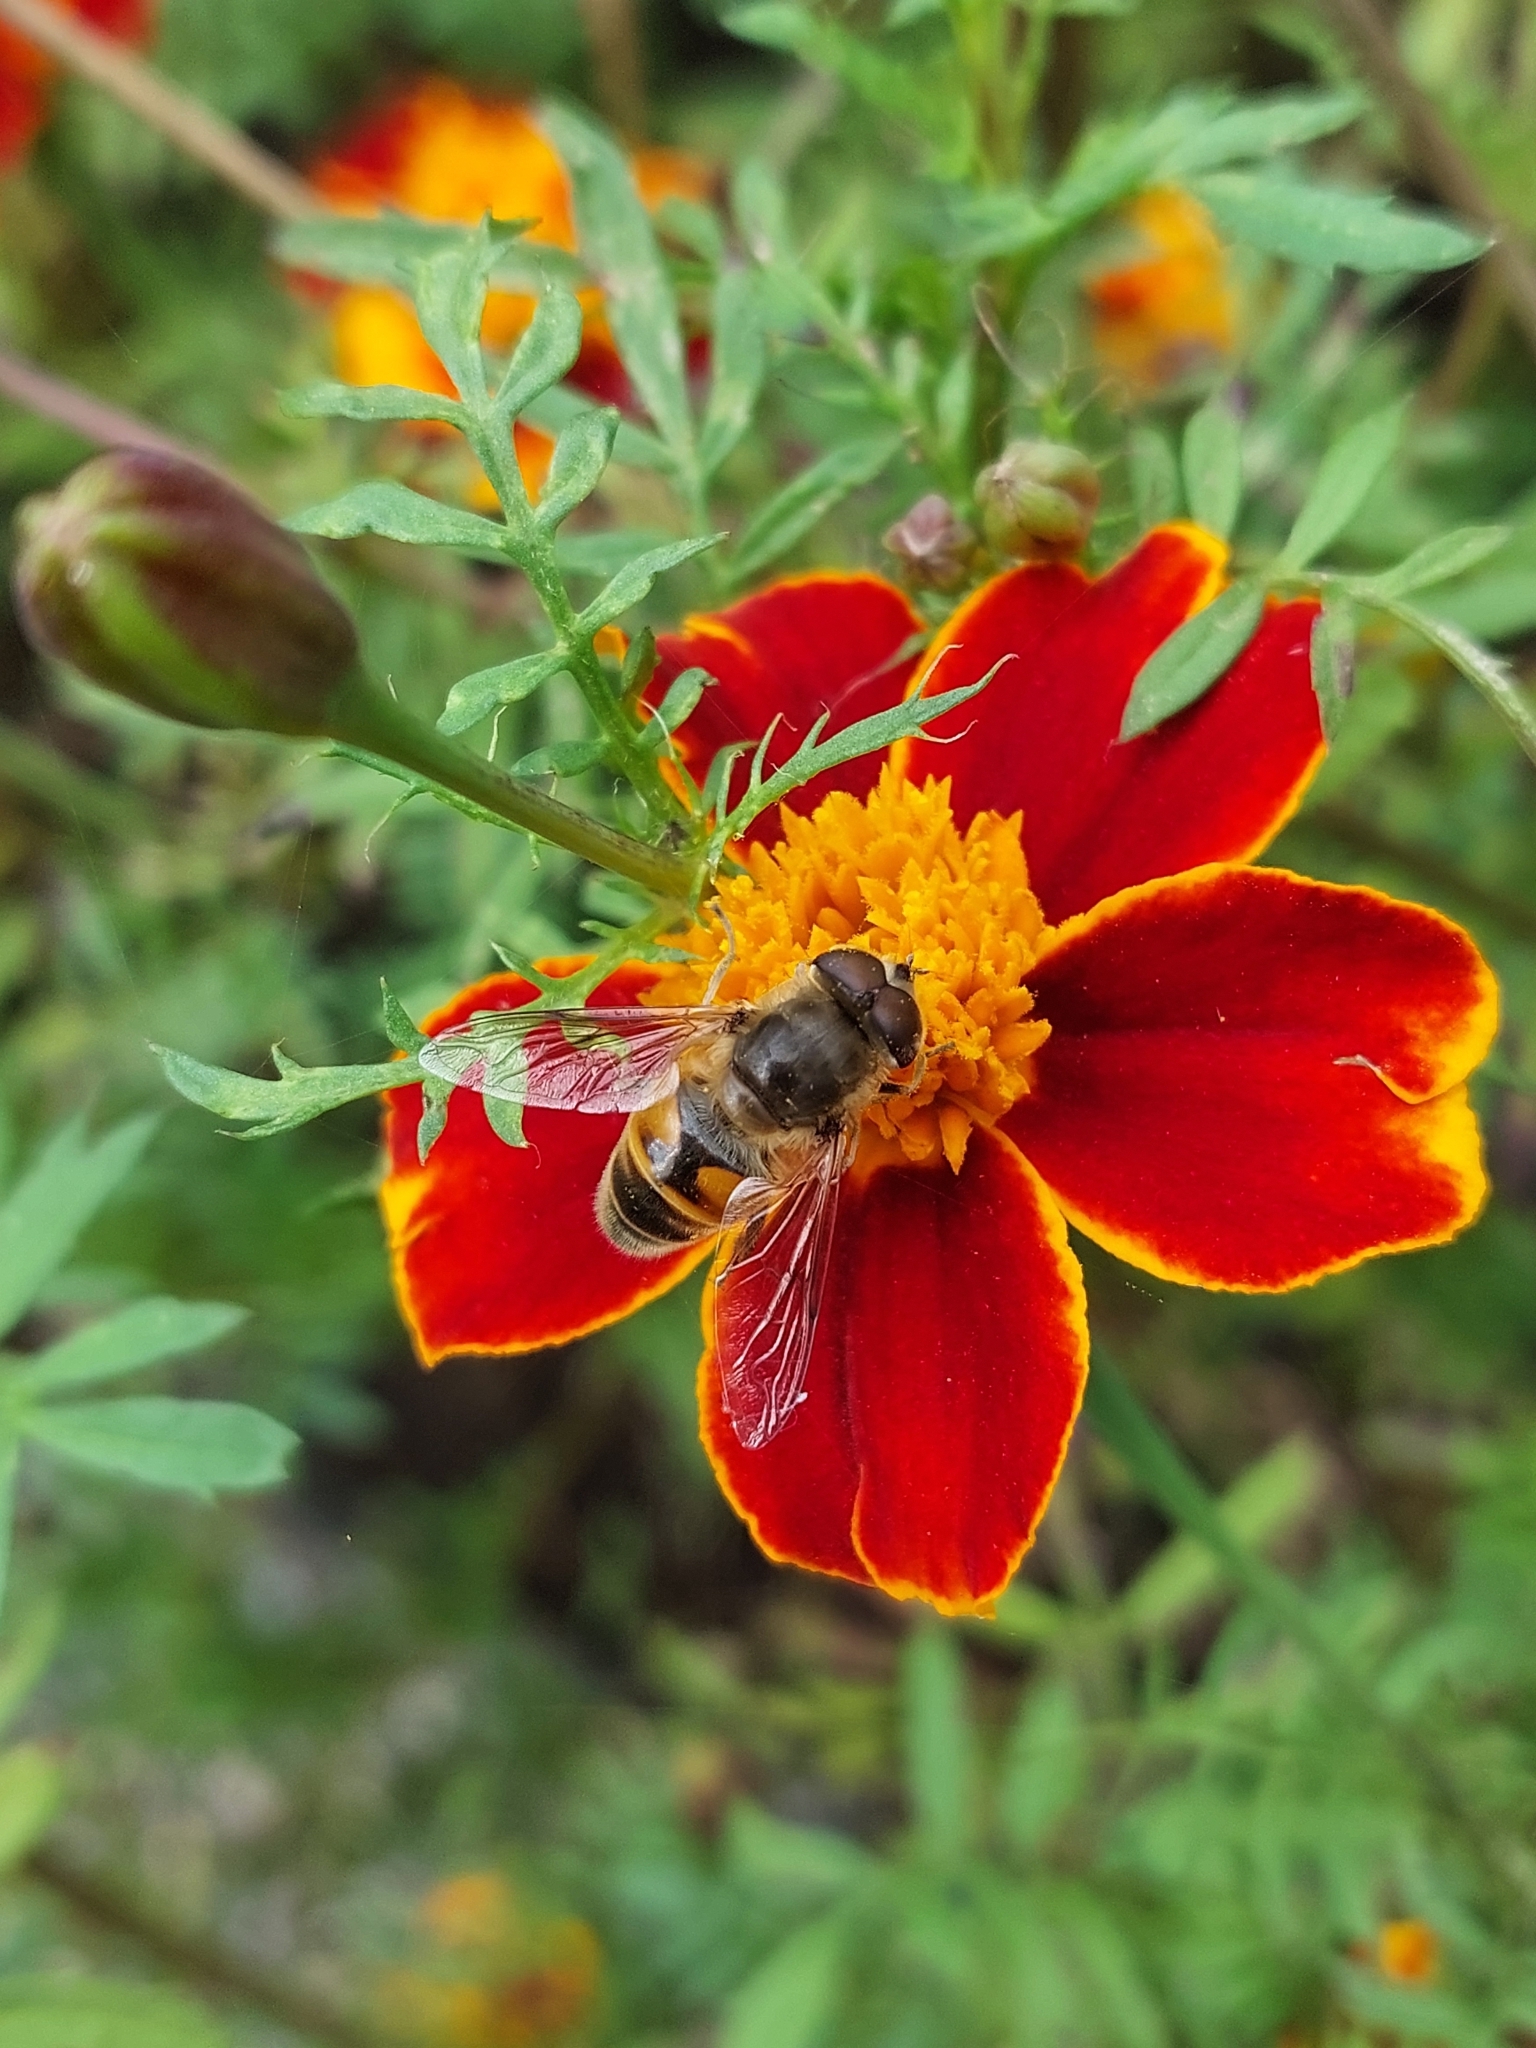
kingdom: Animalia
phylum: Arthropoda
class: Insecta
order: Diptera
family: Syrphidae
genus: Eristalis
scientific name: Eristalis tenax
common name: Drone fly
